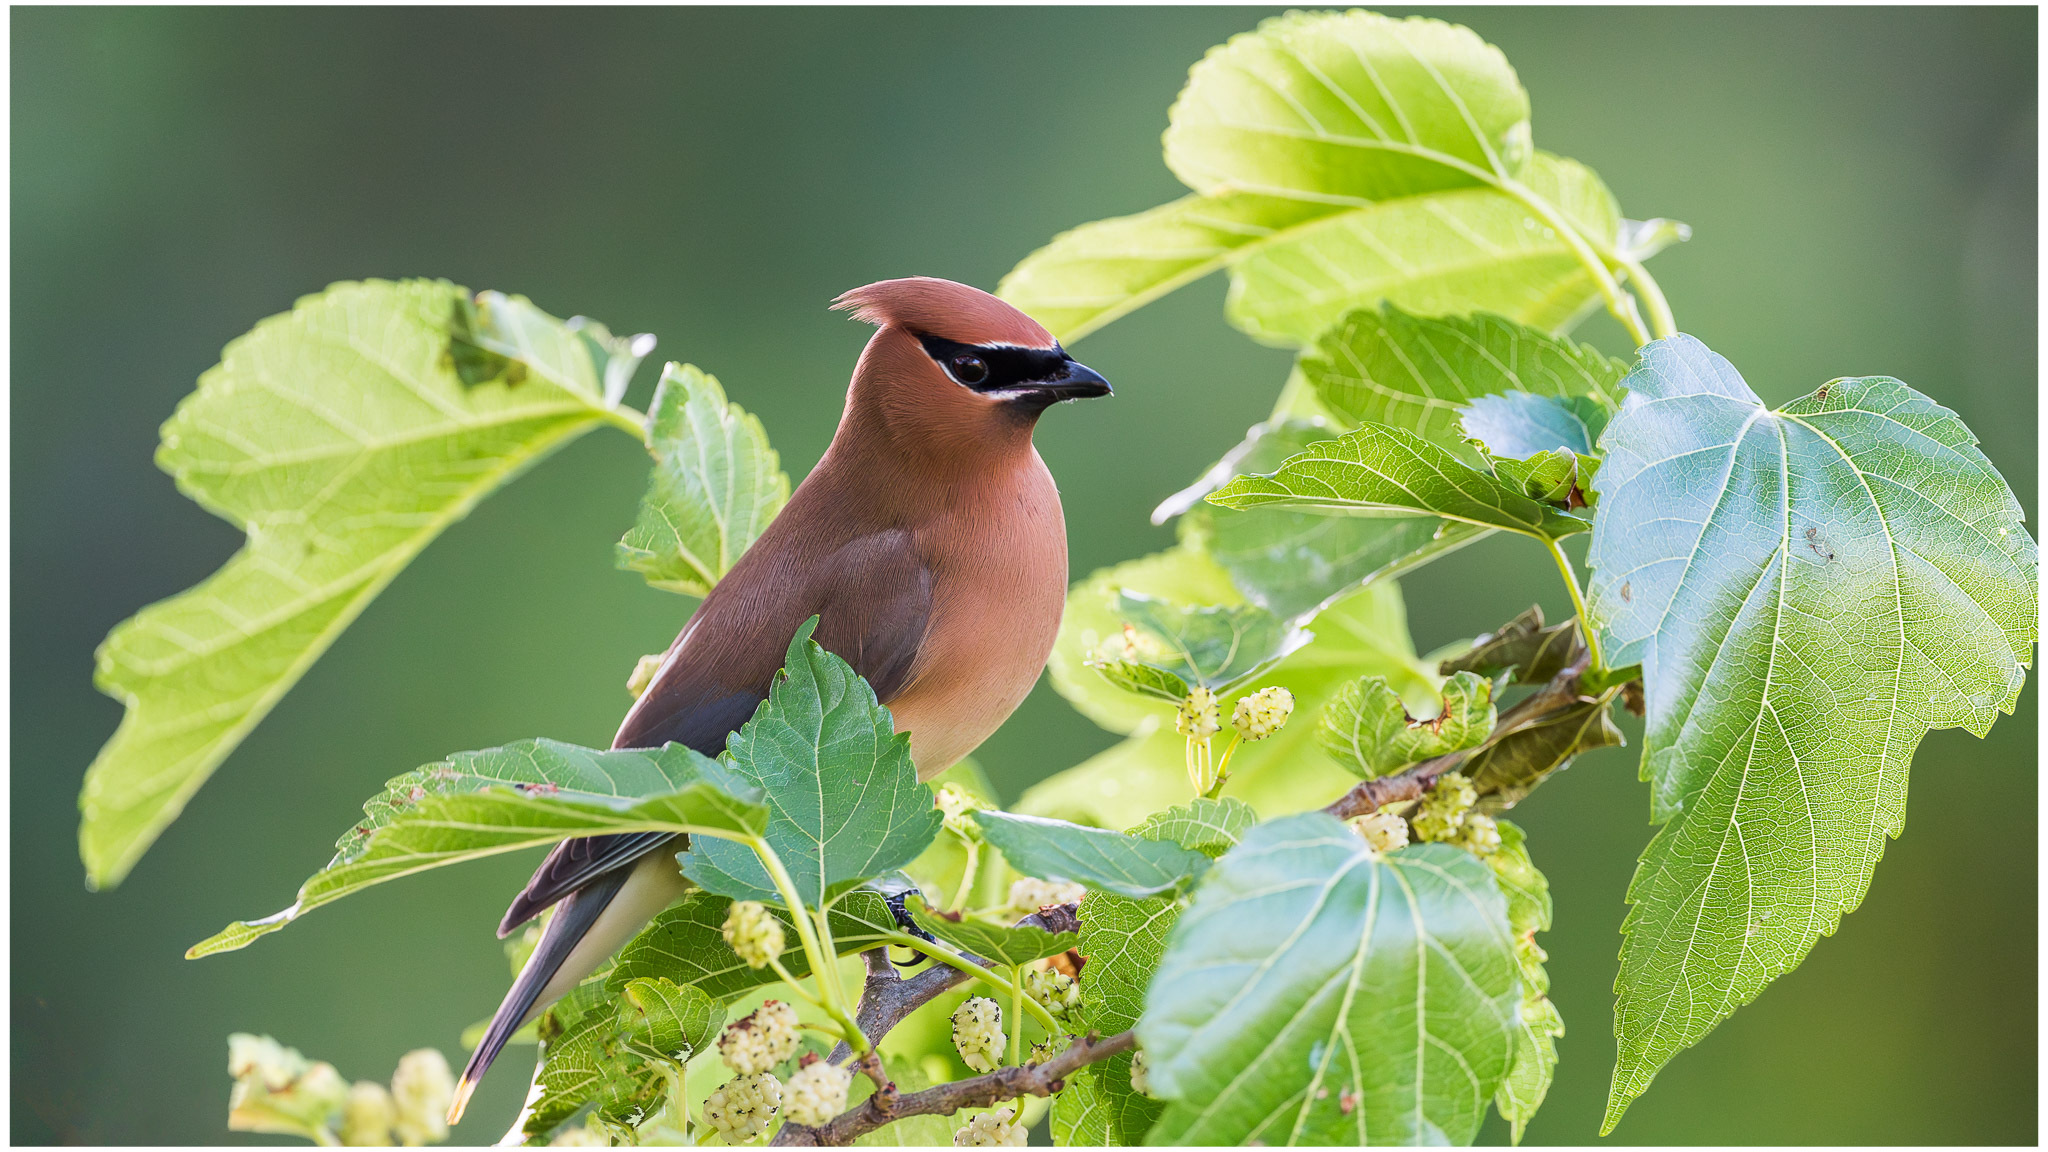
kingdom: Animalia
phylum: Chordata
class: Aves
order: Passeriformes
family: Bombycillidae
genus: Bombycilla
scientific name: Bombycilla cedrorum
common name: Cedar waxwing
